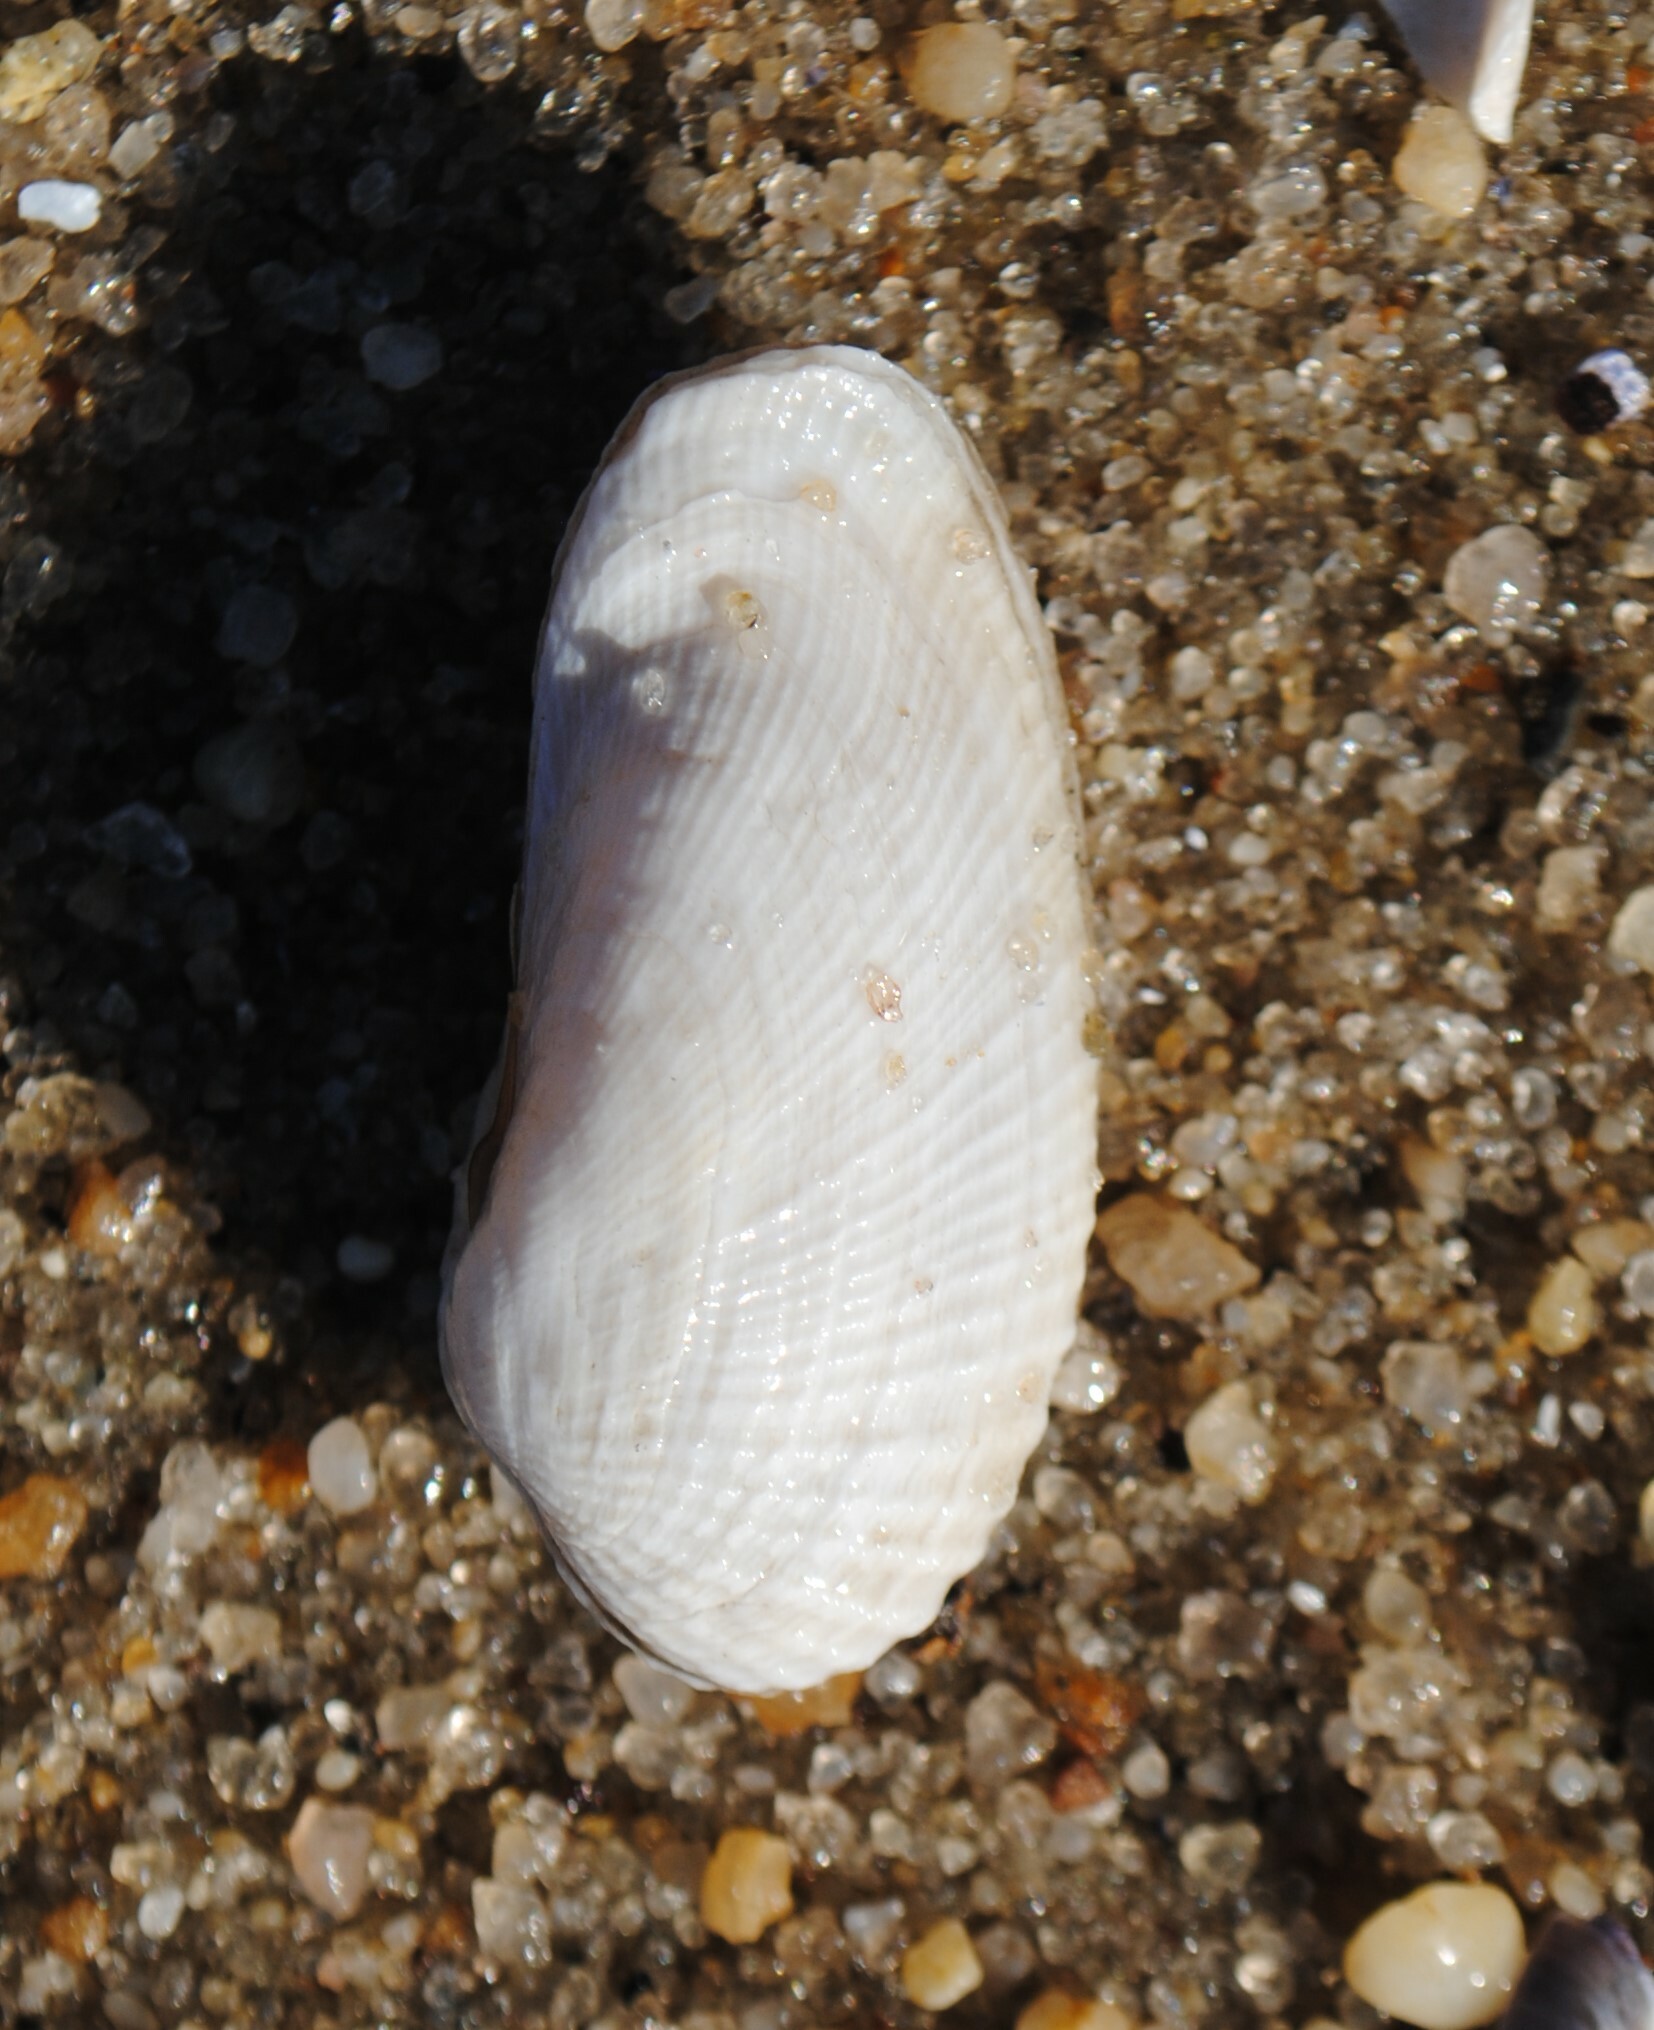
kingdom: Animalia
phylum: Mollusca
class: Bivalvia
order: Venerida
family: Veneridae
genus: Petricolaria
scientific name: Petricolaria pholadiformis
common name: American piddock
